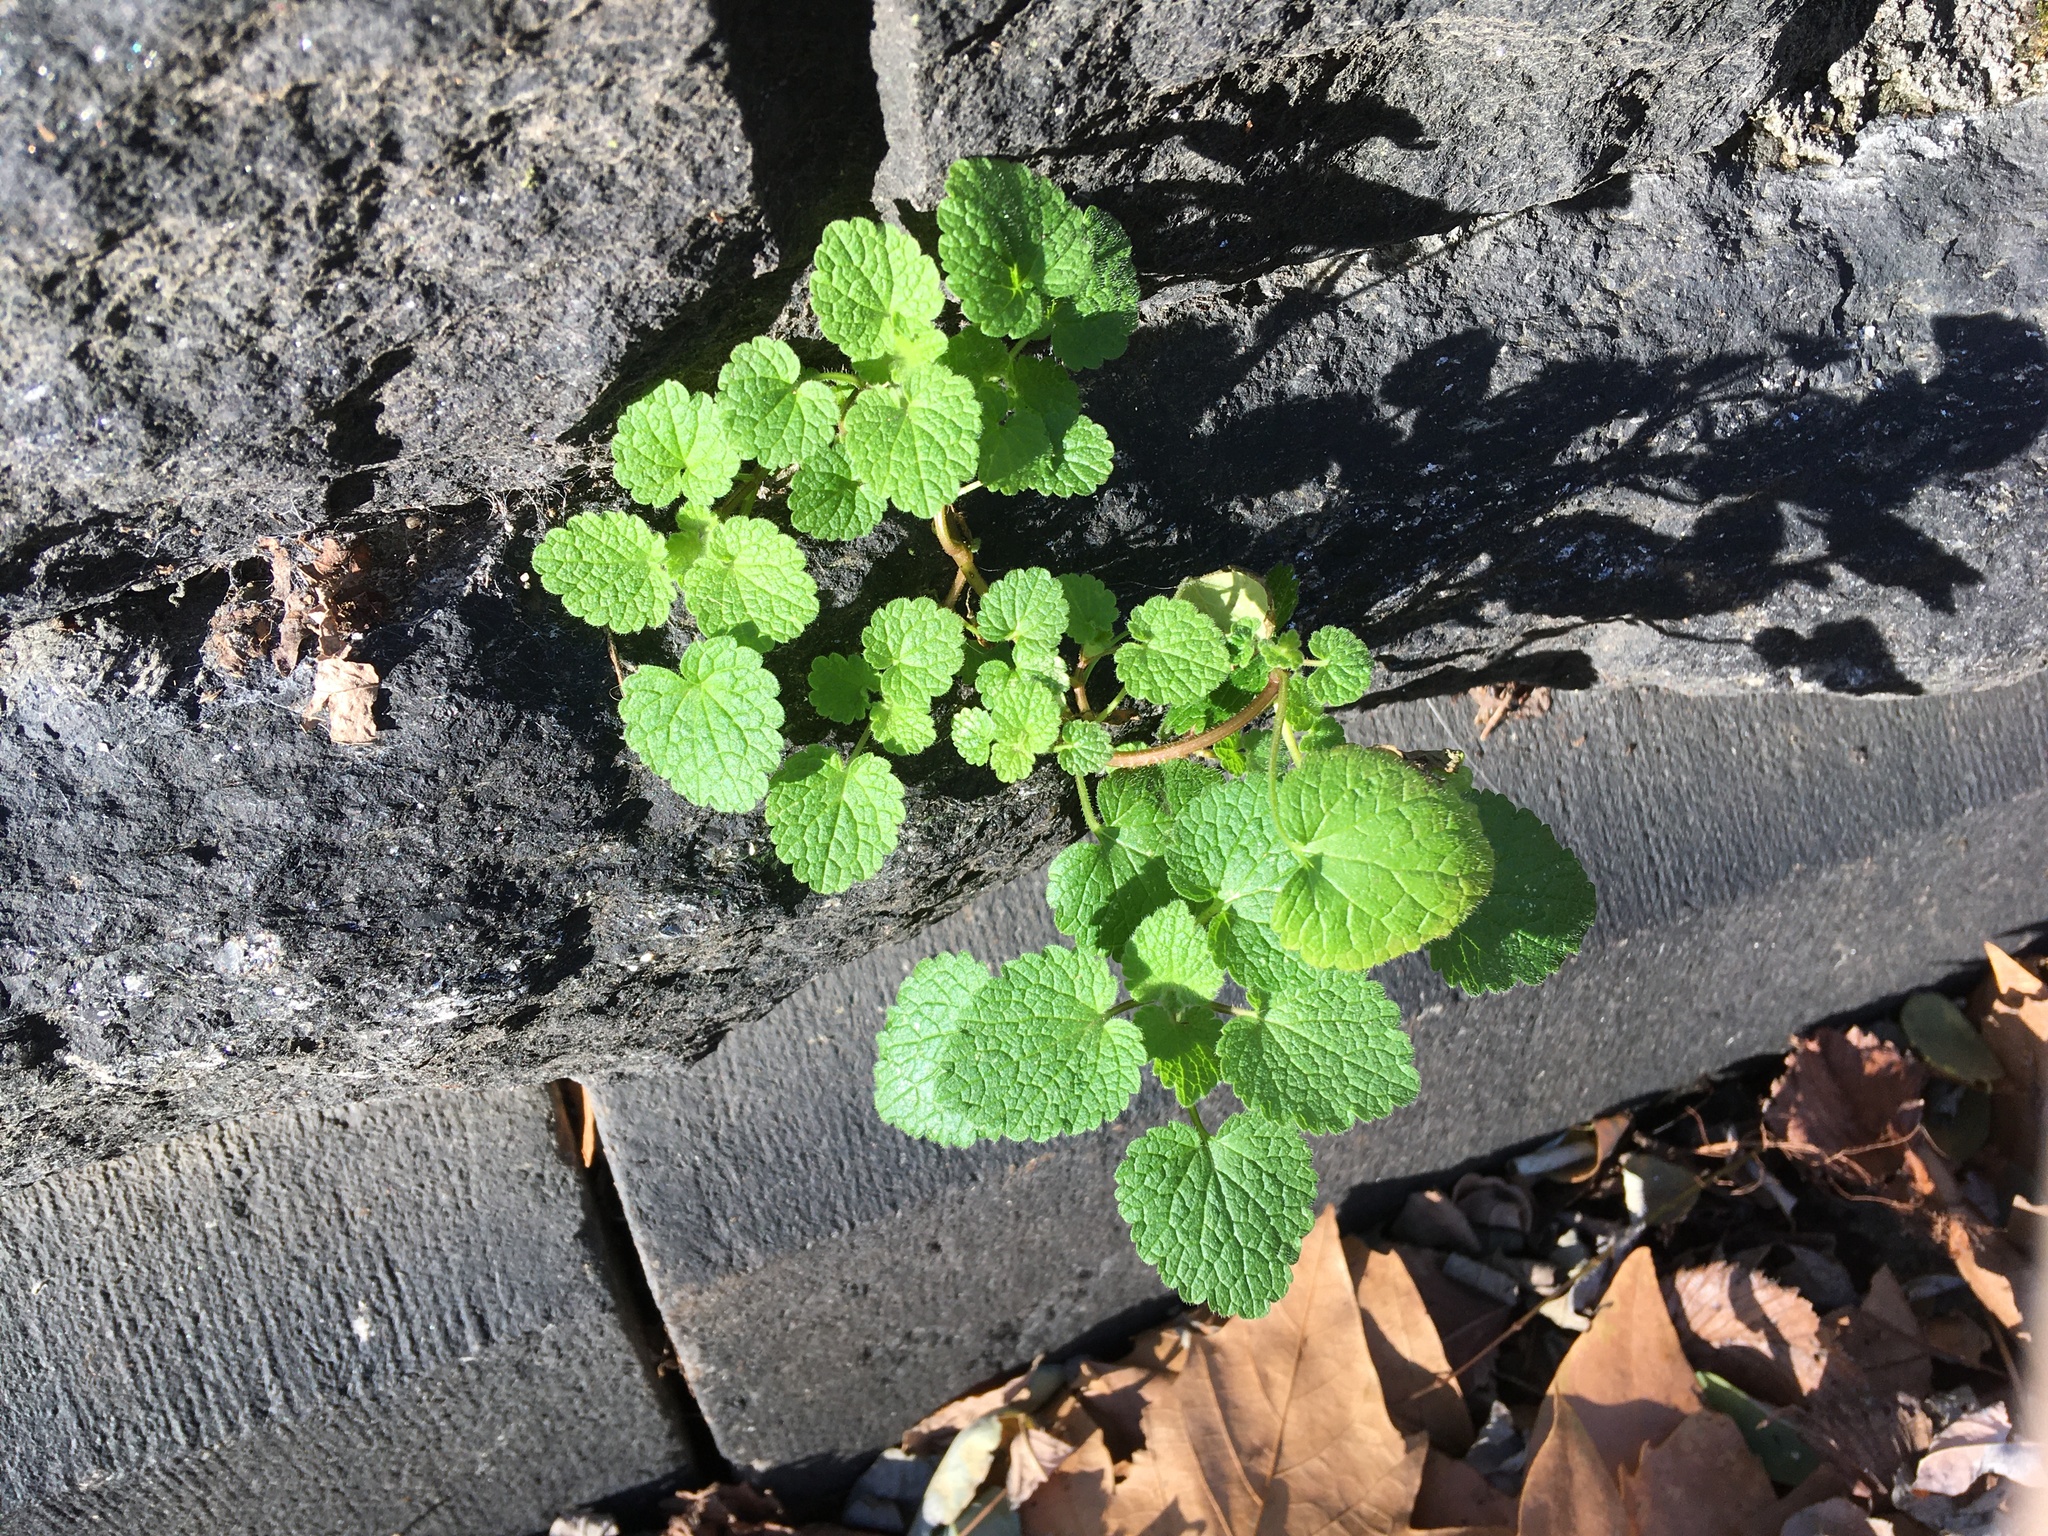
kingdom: Plantae
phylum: Tracheophyta
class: Magnoliopsida
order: Lamiales
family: Lamiaceae
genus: Lamium
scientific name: Lamium purpureum
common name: Red dead-nettle
